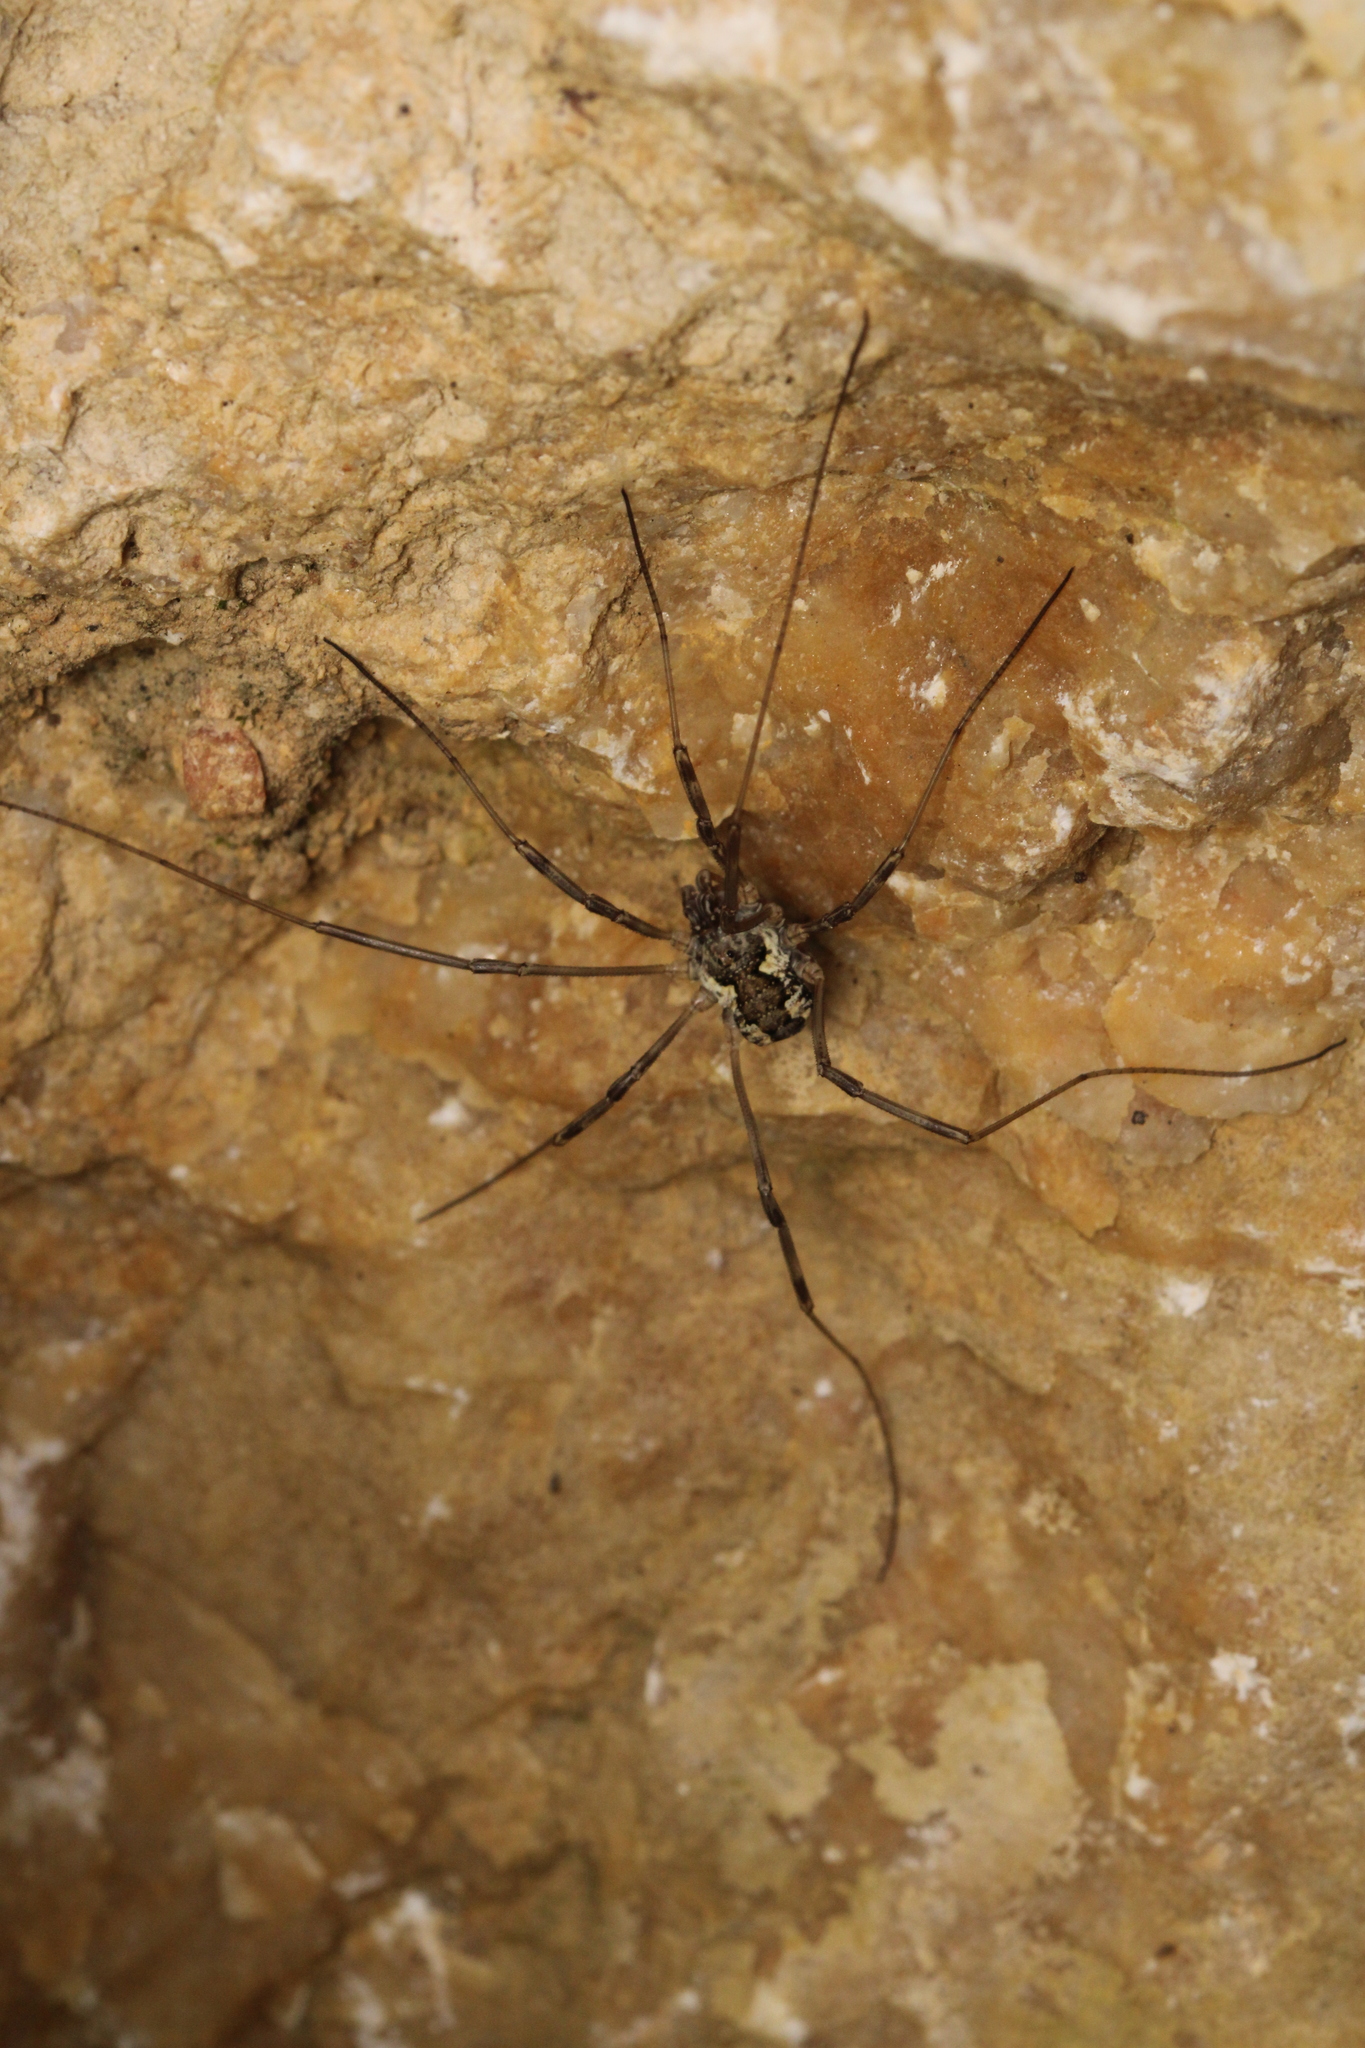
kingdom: Animalia
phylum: Arthropoda
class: Arachnida
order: Opiliones
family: Phalangiidae
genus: Mitopus
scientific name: Mitopus morio
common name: Saddleback harvestman
